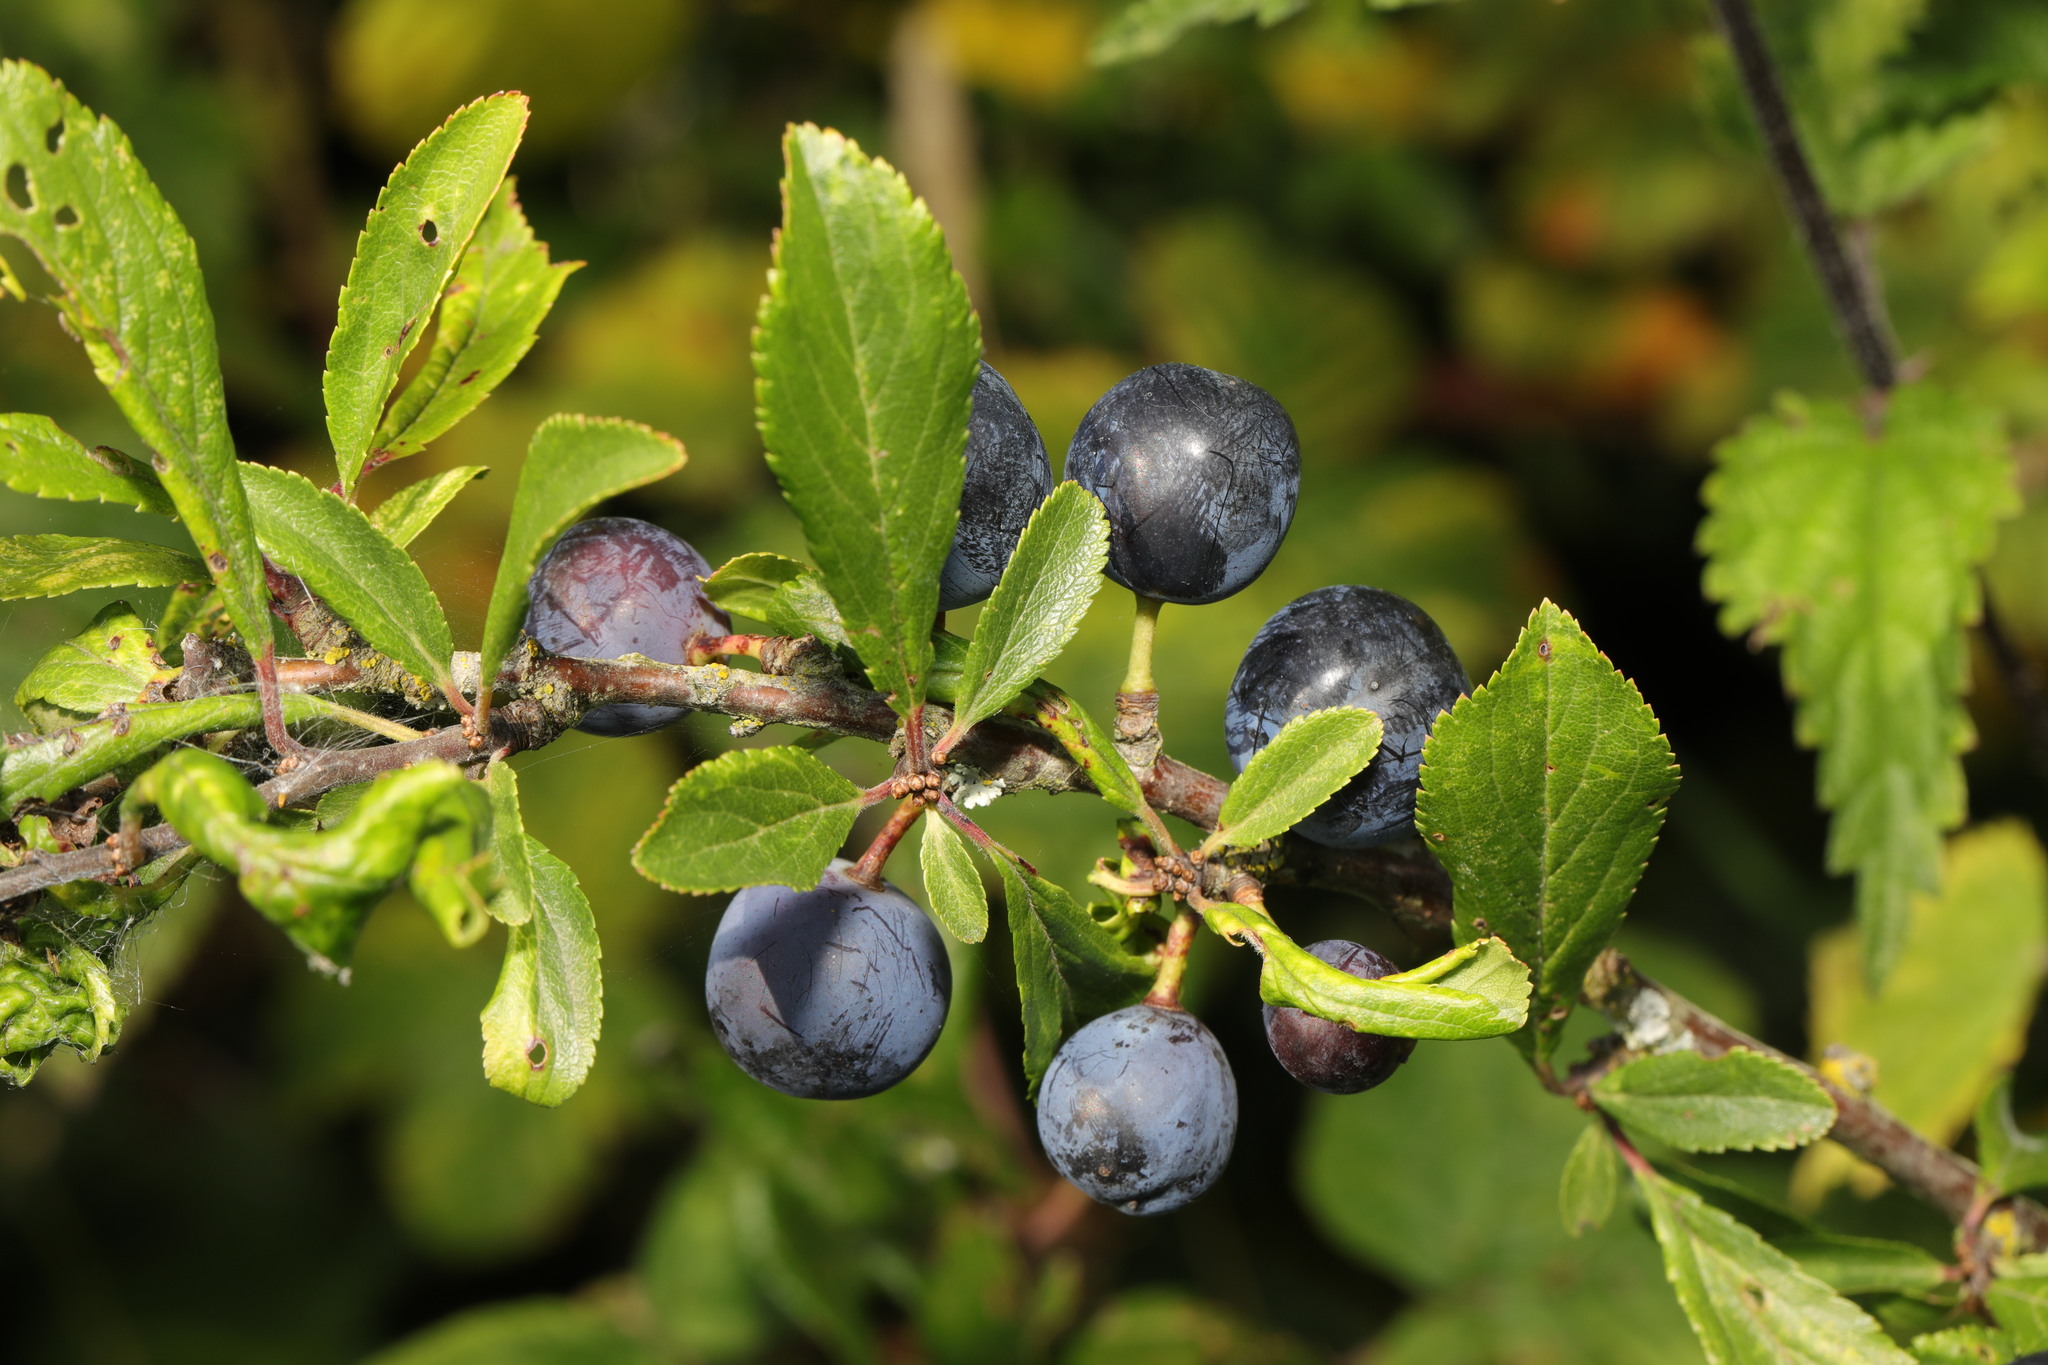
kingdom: Plantae
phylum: Tracheophyta
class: Magnoliopsida
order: Rosales
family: Rosaceae
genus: Prunus
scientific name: Prunus spinosa
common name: Blackthorn
